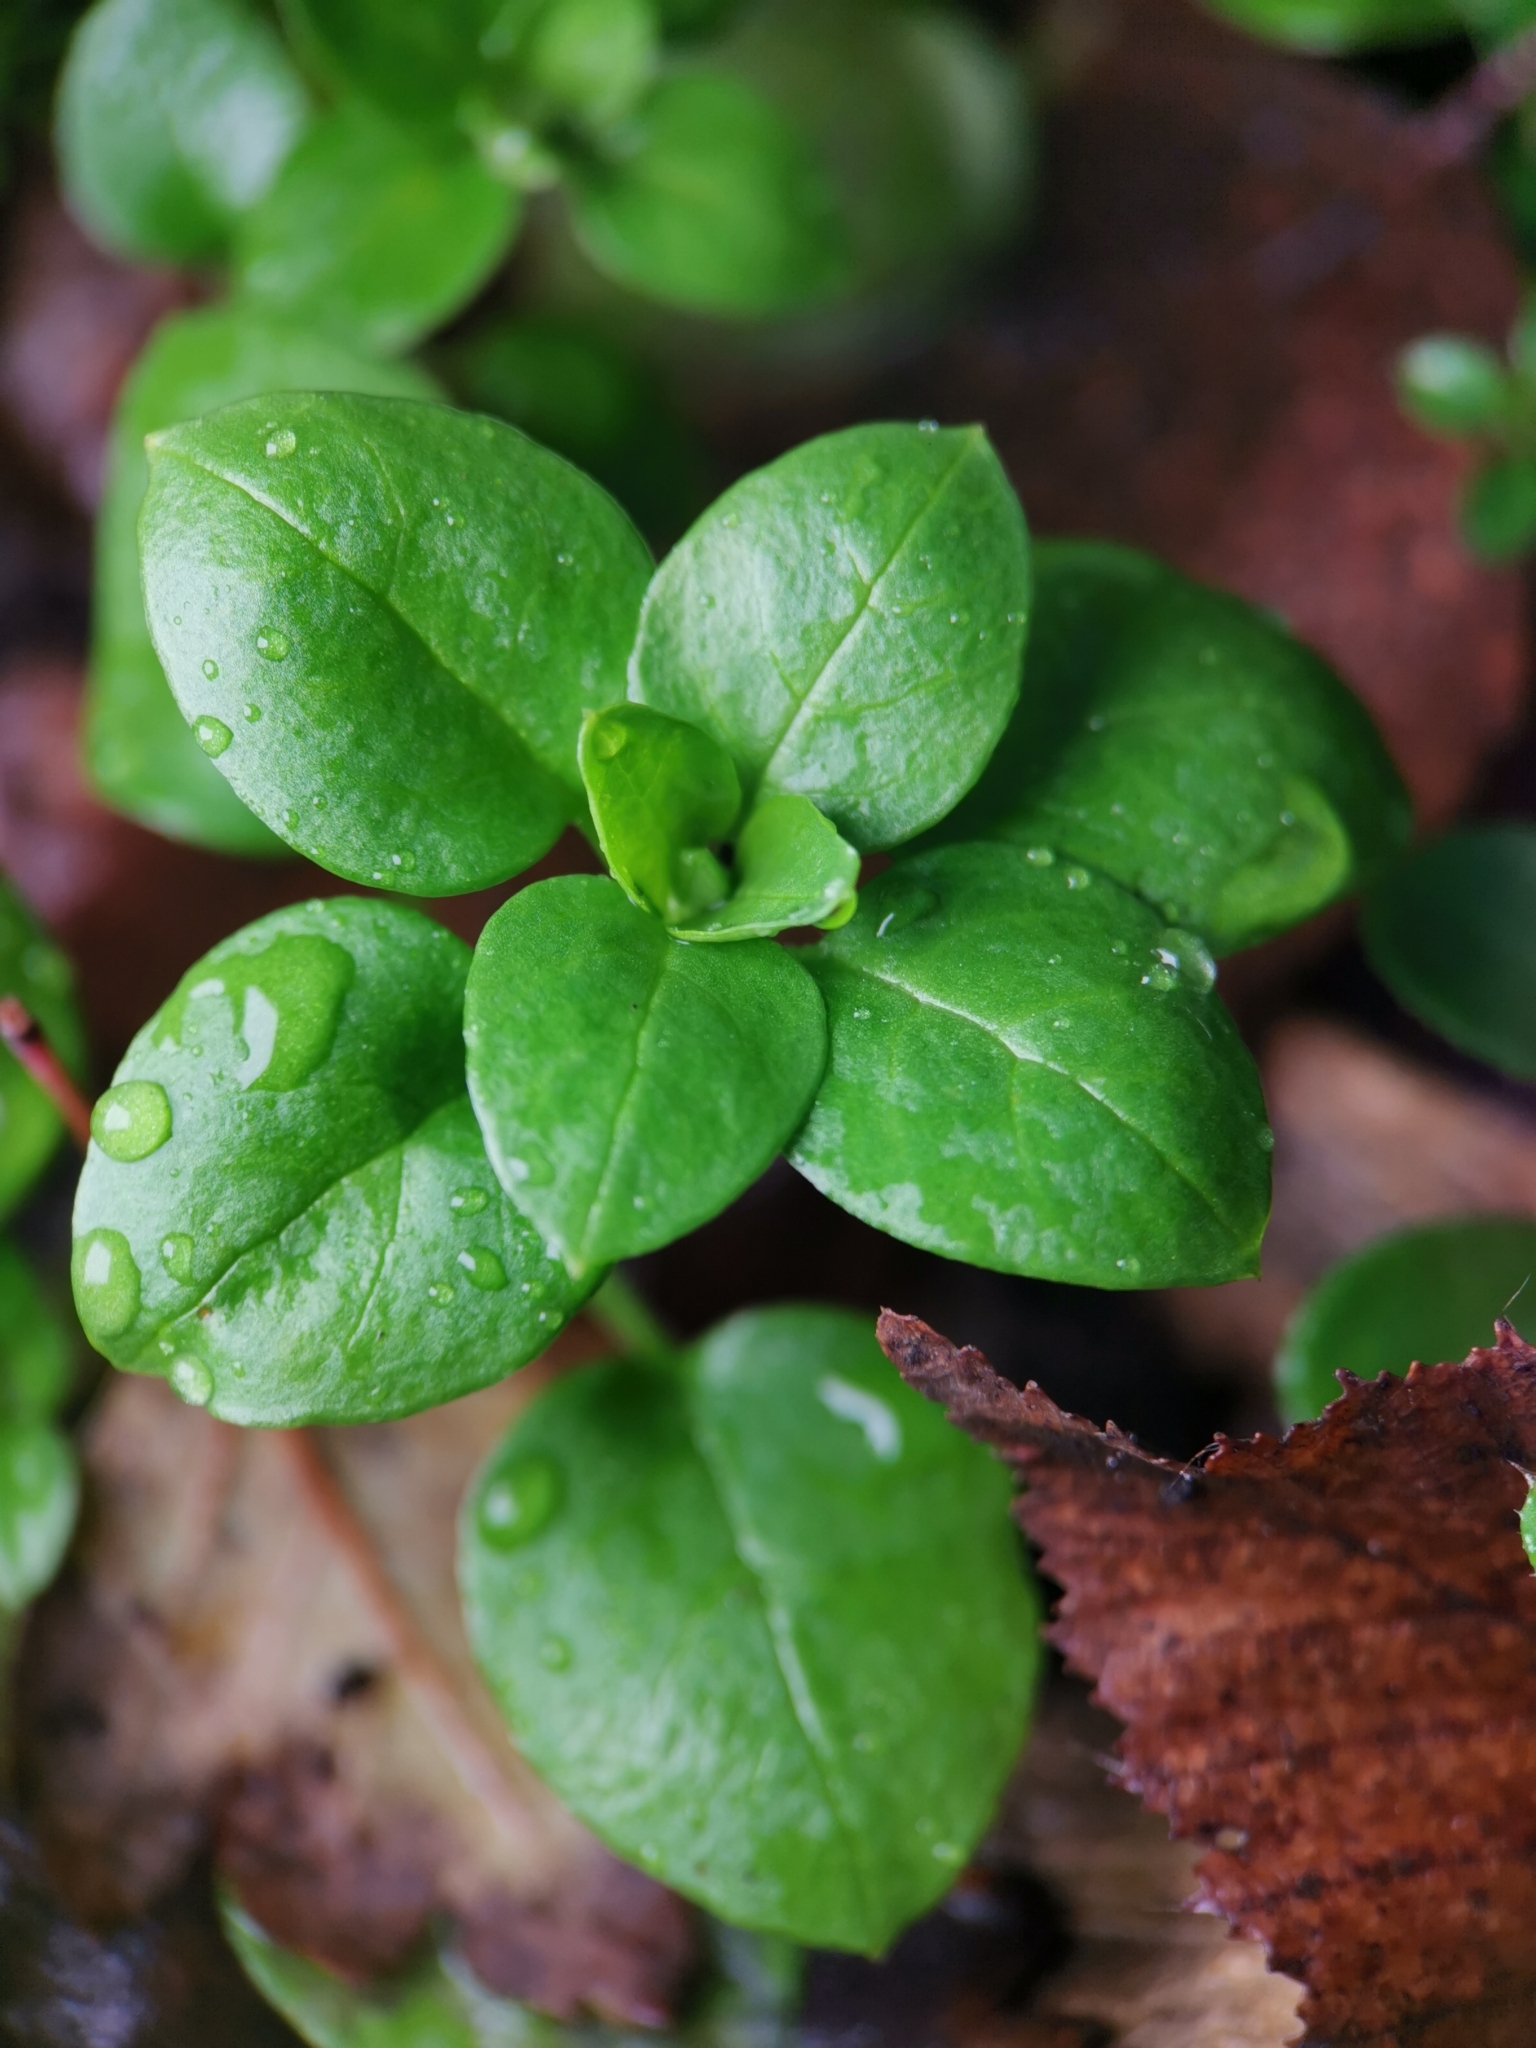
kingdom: Plantae
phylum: Tracheophyta
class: Magnoliopsida
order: Caryophyllales
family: Caryophyllaceae
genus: Stellaria
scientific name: Stellaria media
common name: Common chickweed
